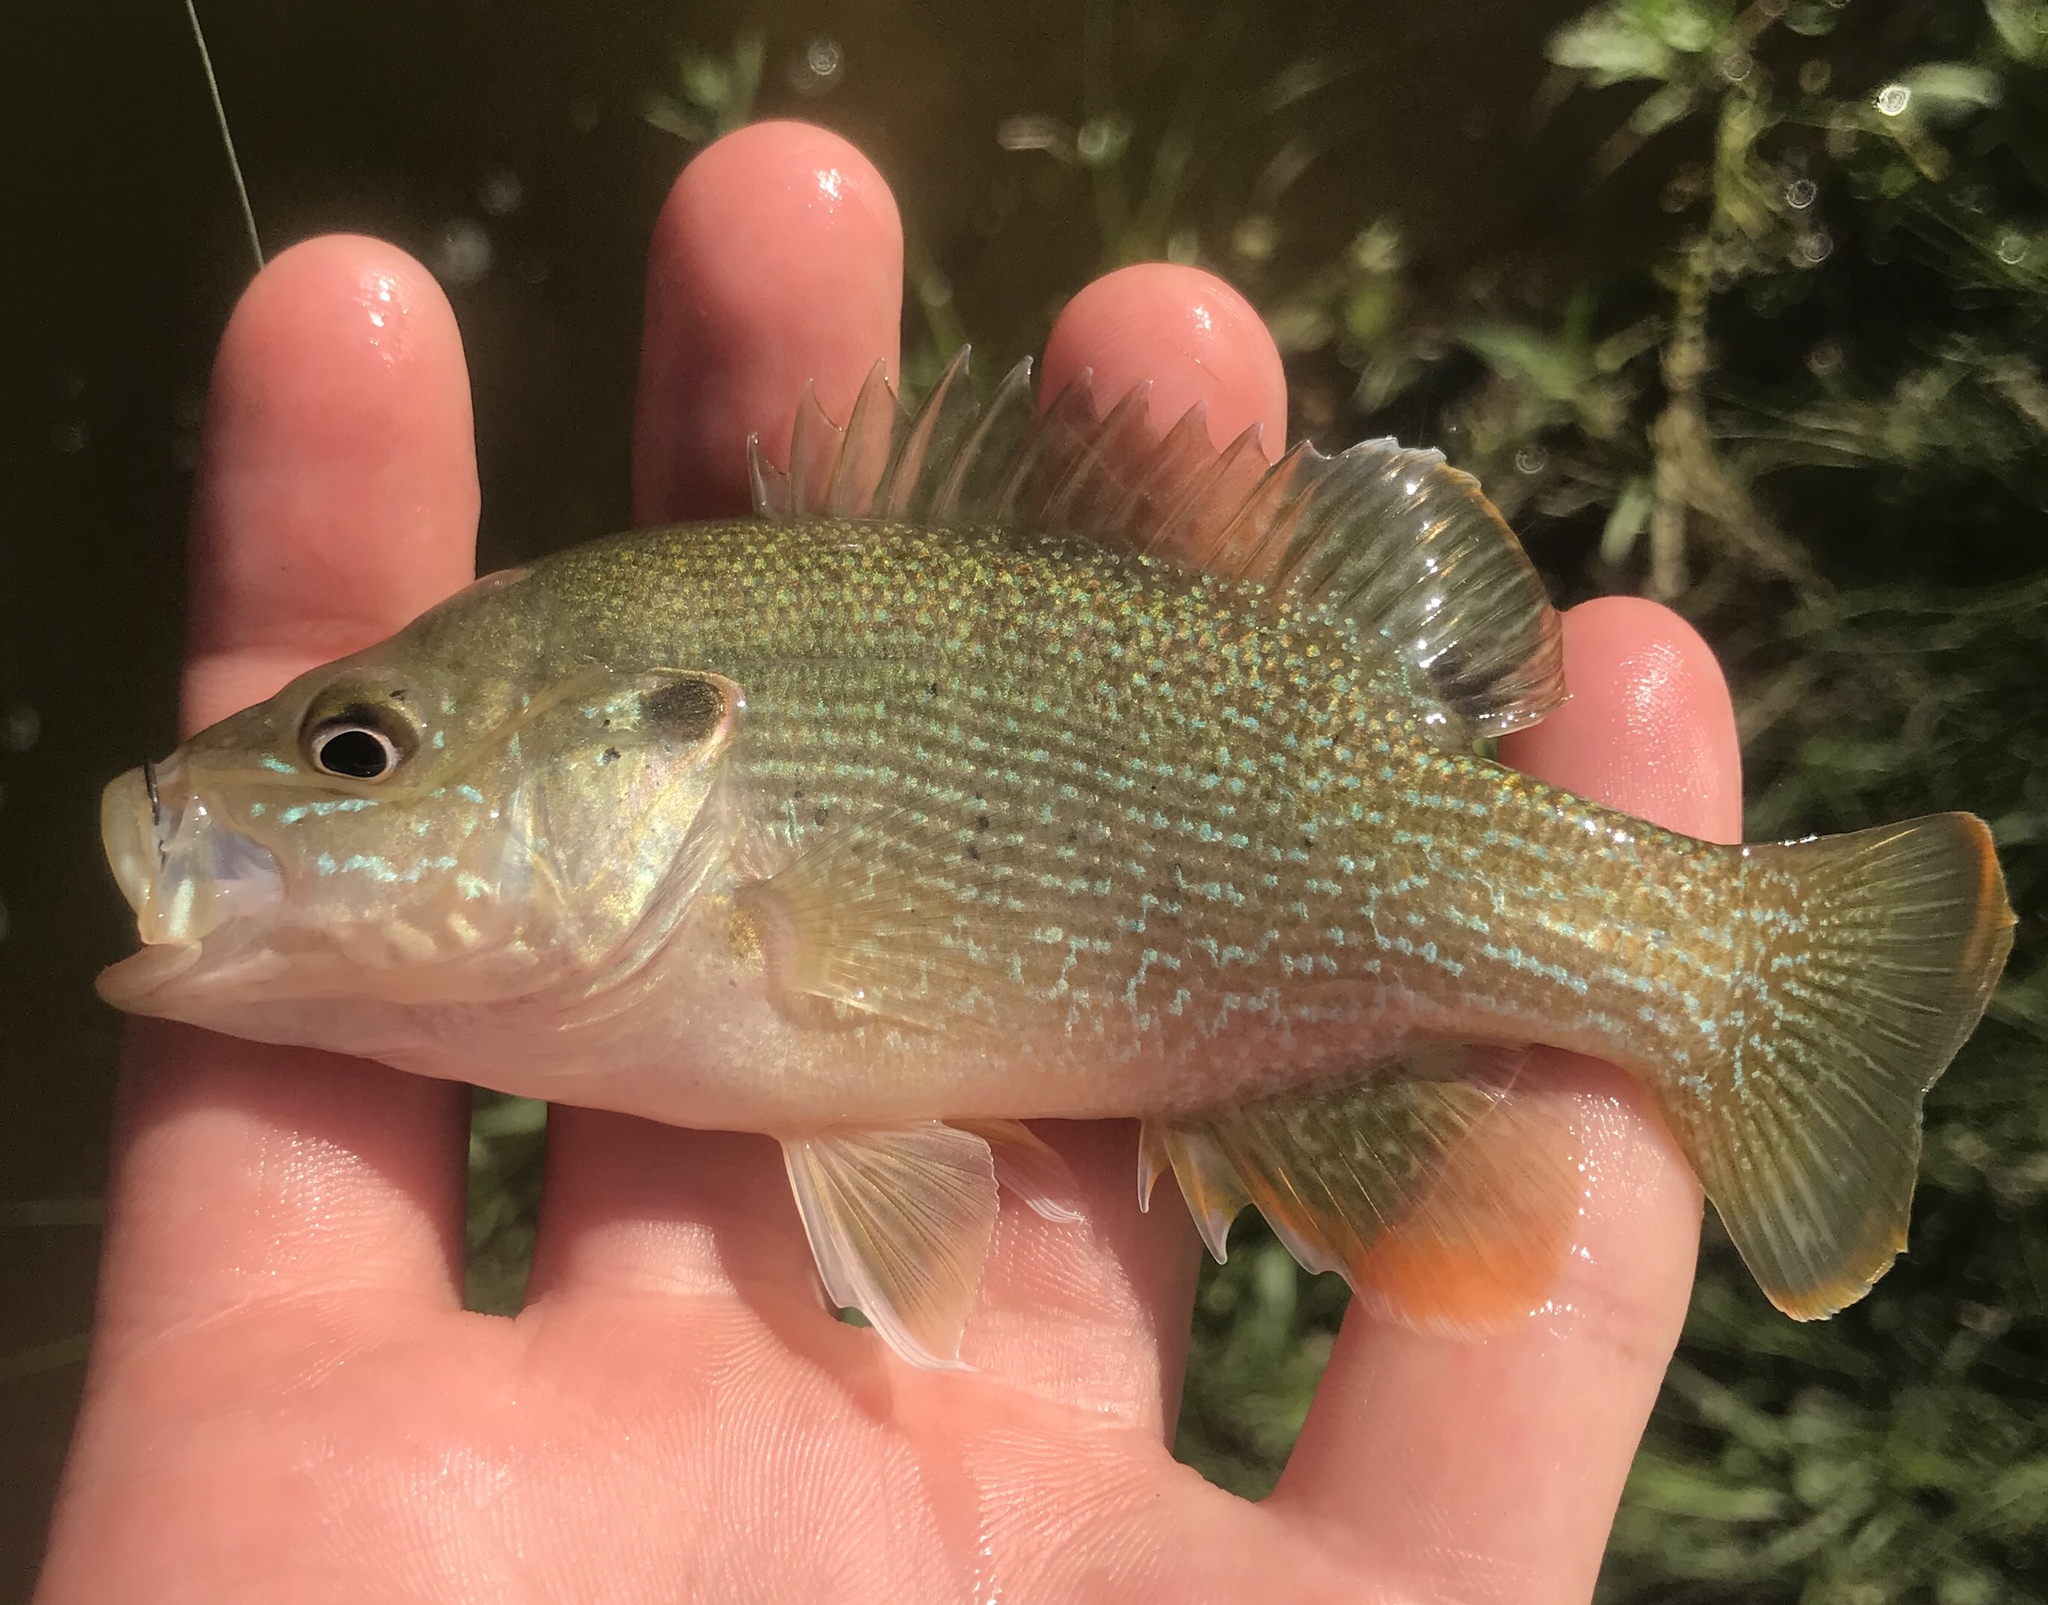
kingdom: Animalia
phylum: Chordata
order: Perciformes
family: Centrarchidae
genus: Lepomis
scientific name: Lepomis cyanellus
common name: Green sunfish
